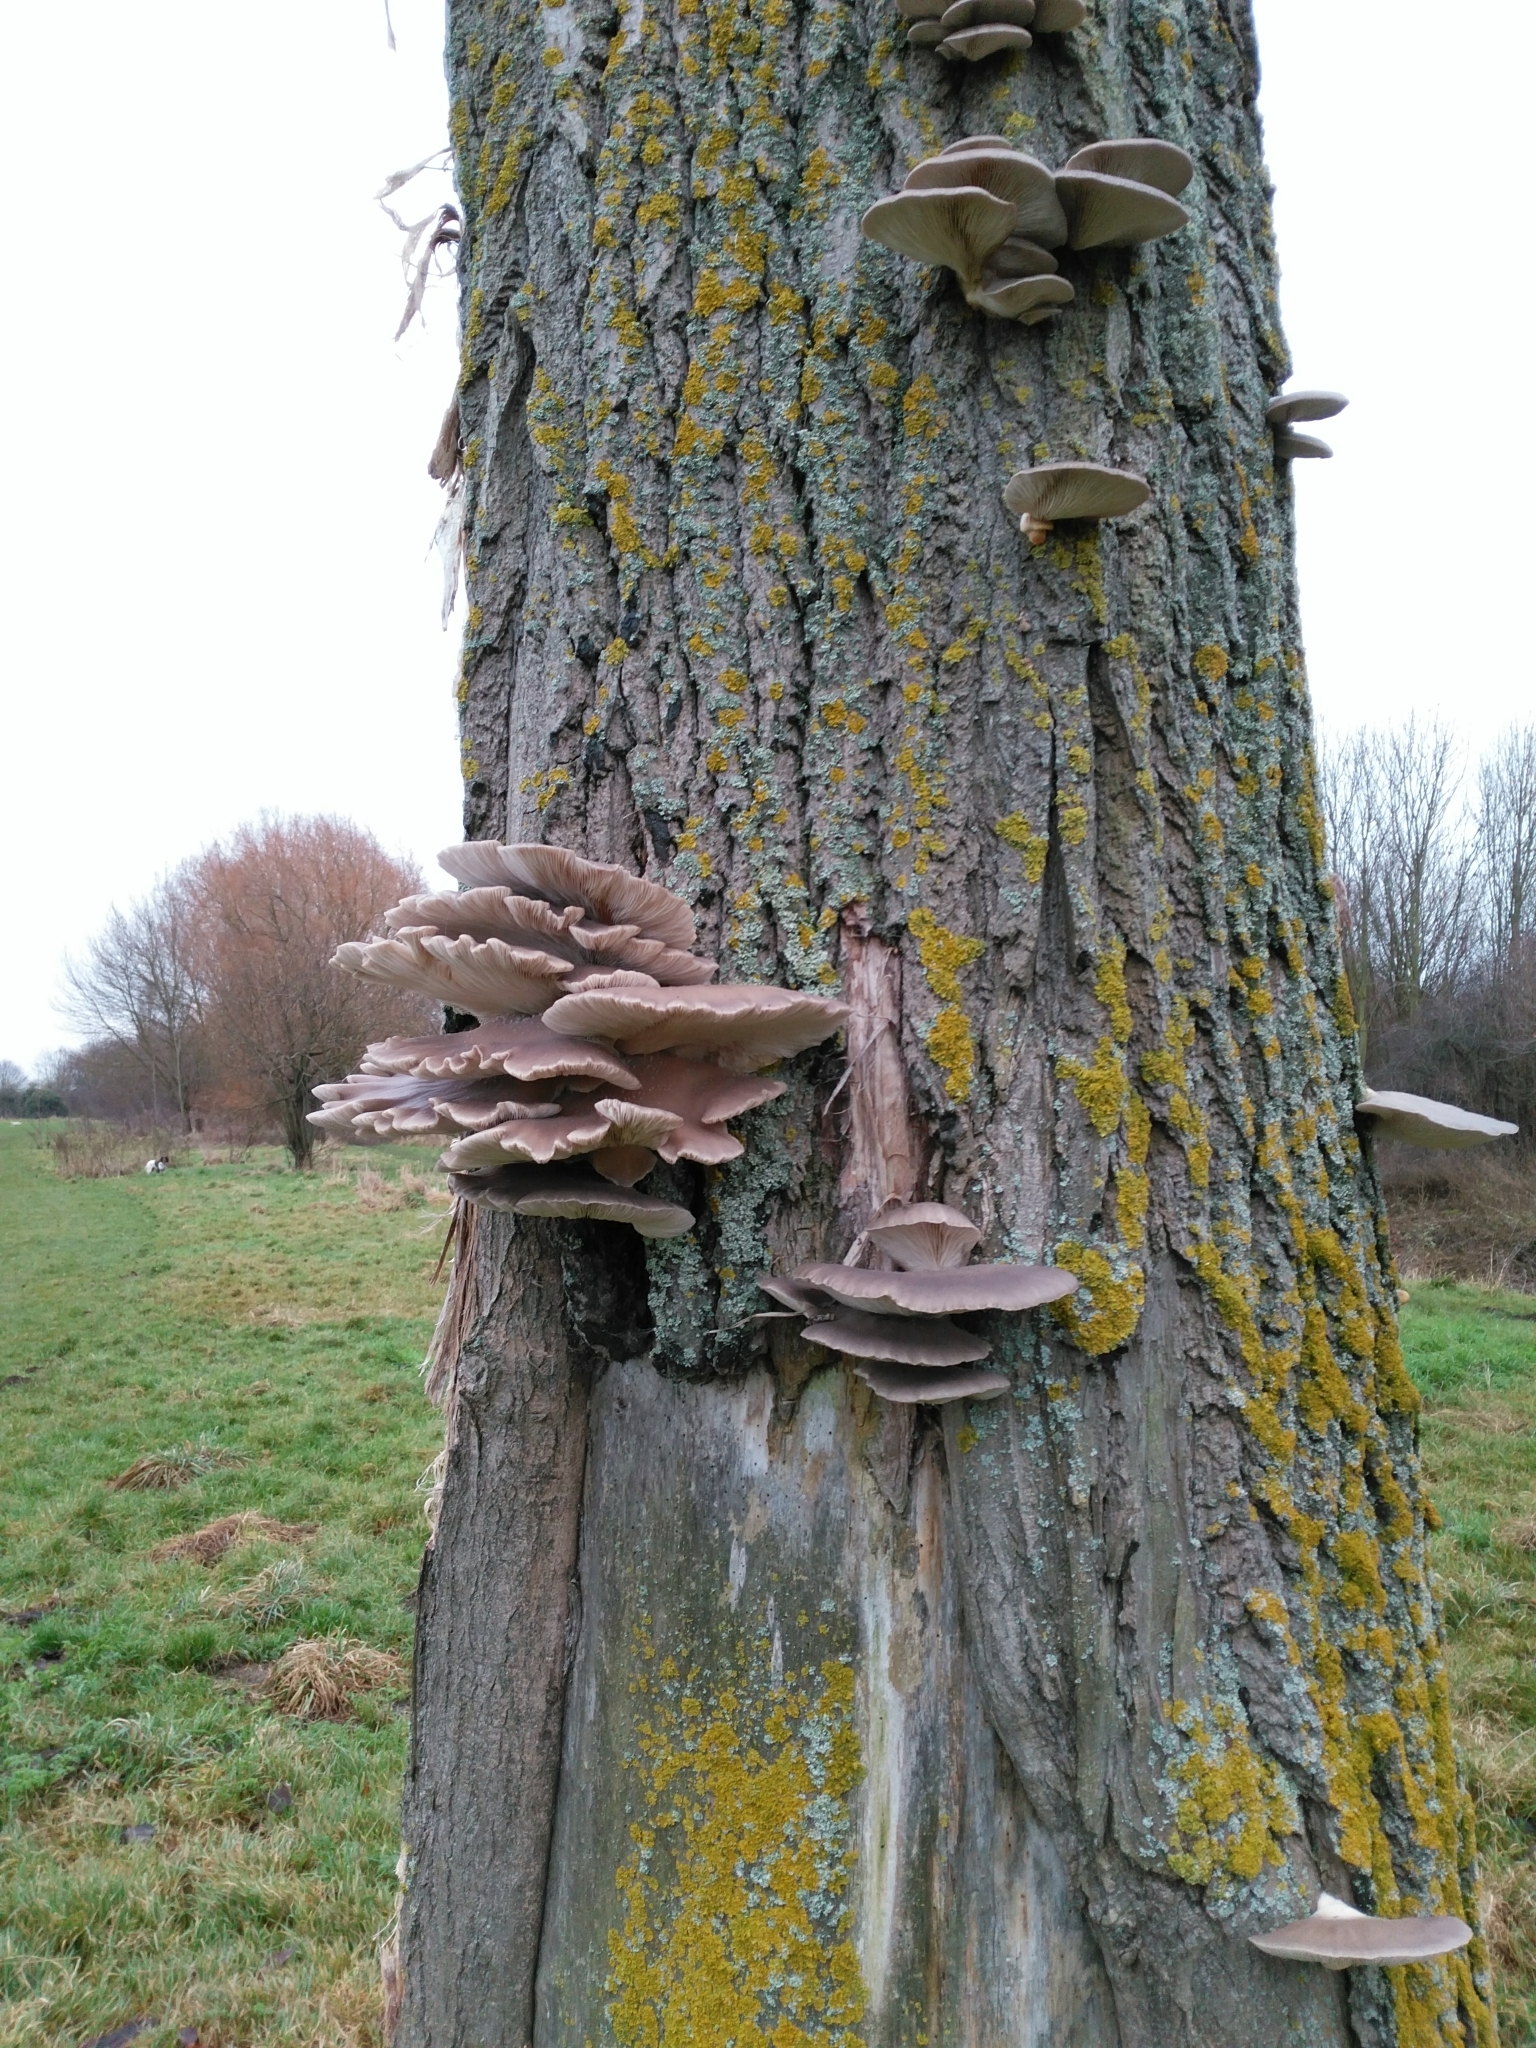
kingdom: Fungi
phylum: Basidiomycota
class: Agaricomycetes
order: Agaricales
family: Pleurotaceae
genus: Pleurotus
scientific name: Pleurotus ostreatus
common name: Oyster mushroom
